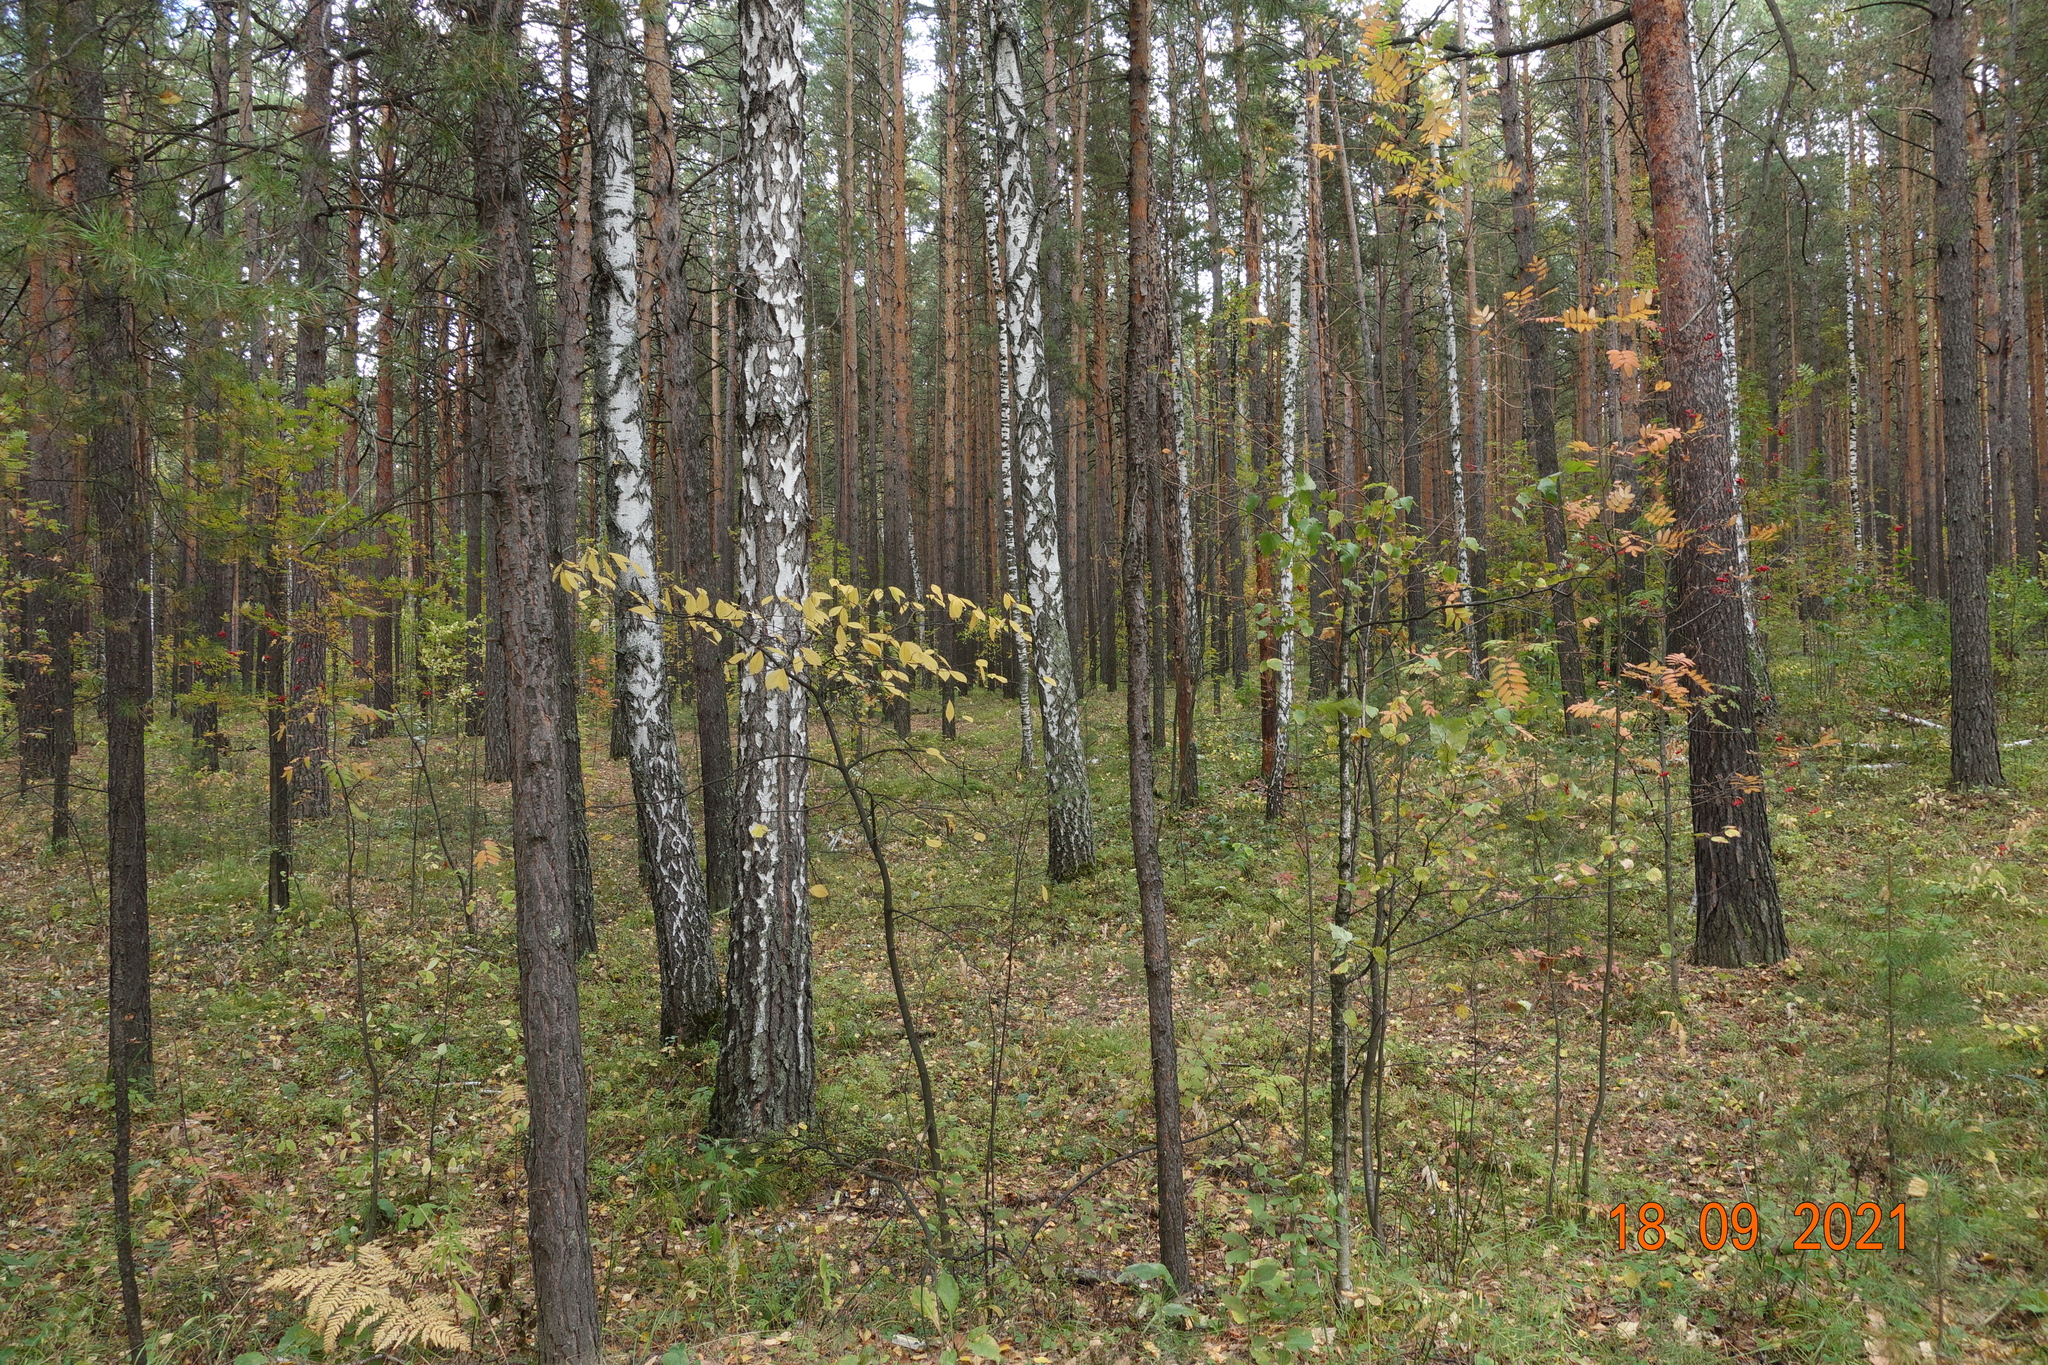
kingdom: Plantae
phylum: Tracheophyta
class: Pinopsida
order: Pinales
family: Pinaceae
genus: Pinus
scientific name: Pinus sylvestris
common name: Scots pine
